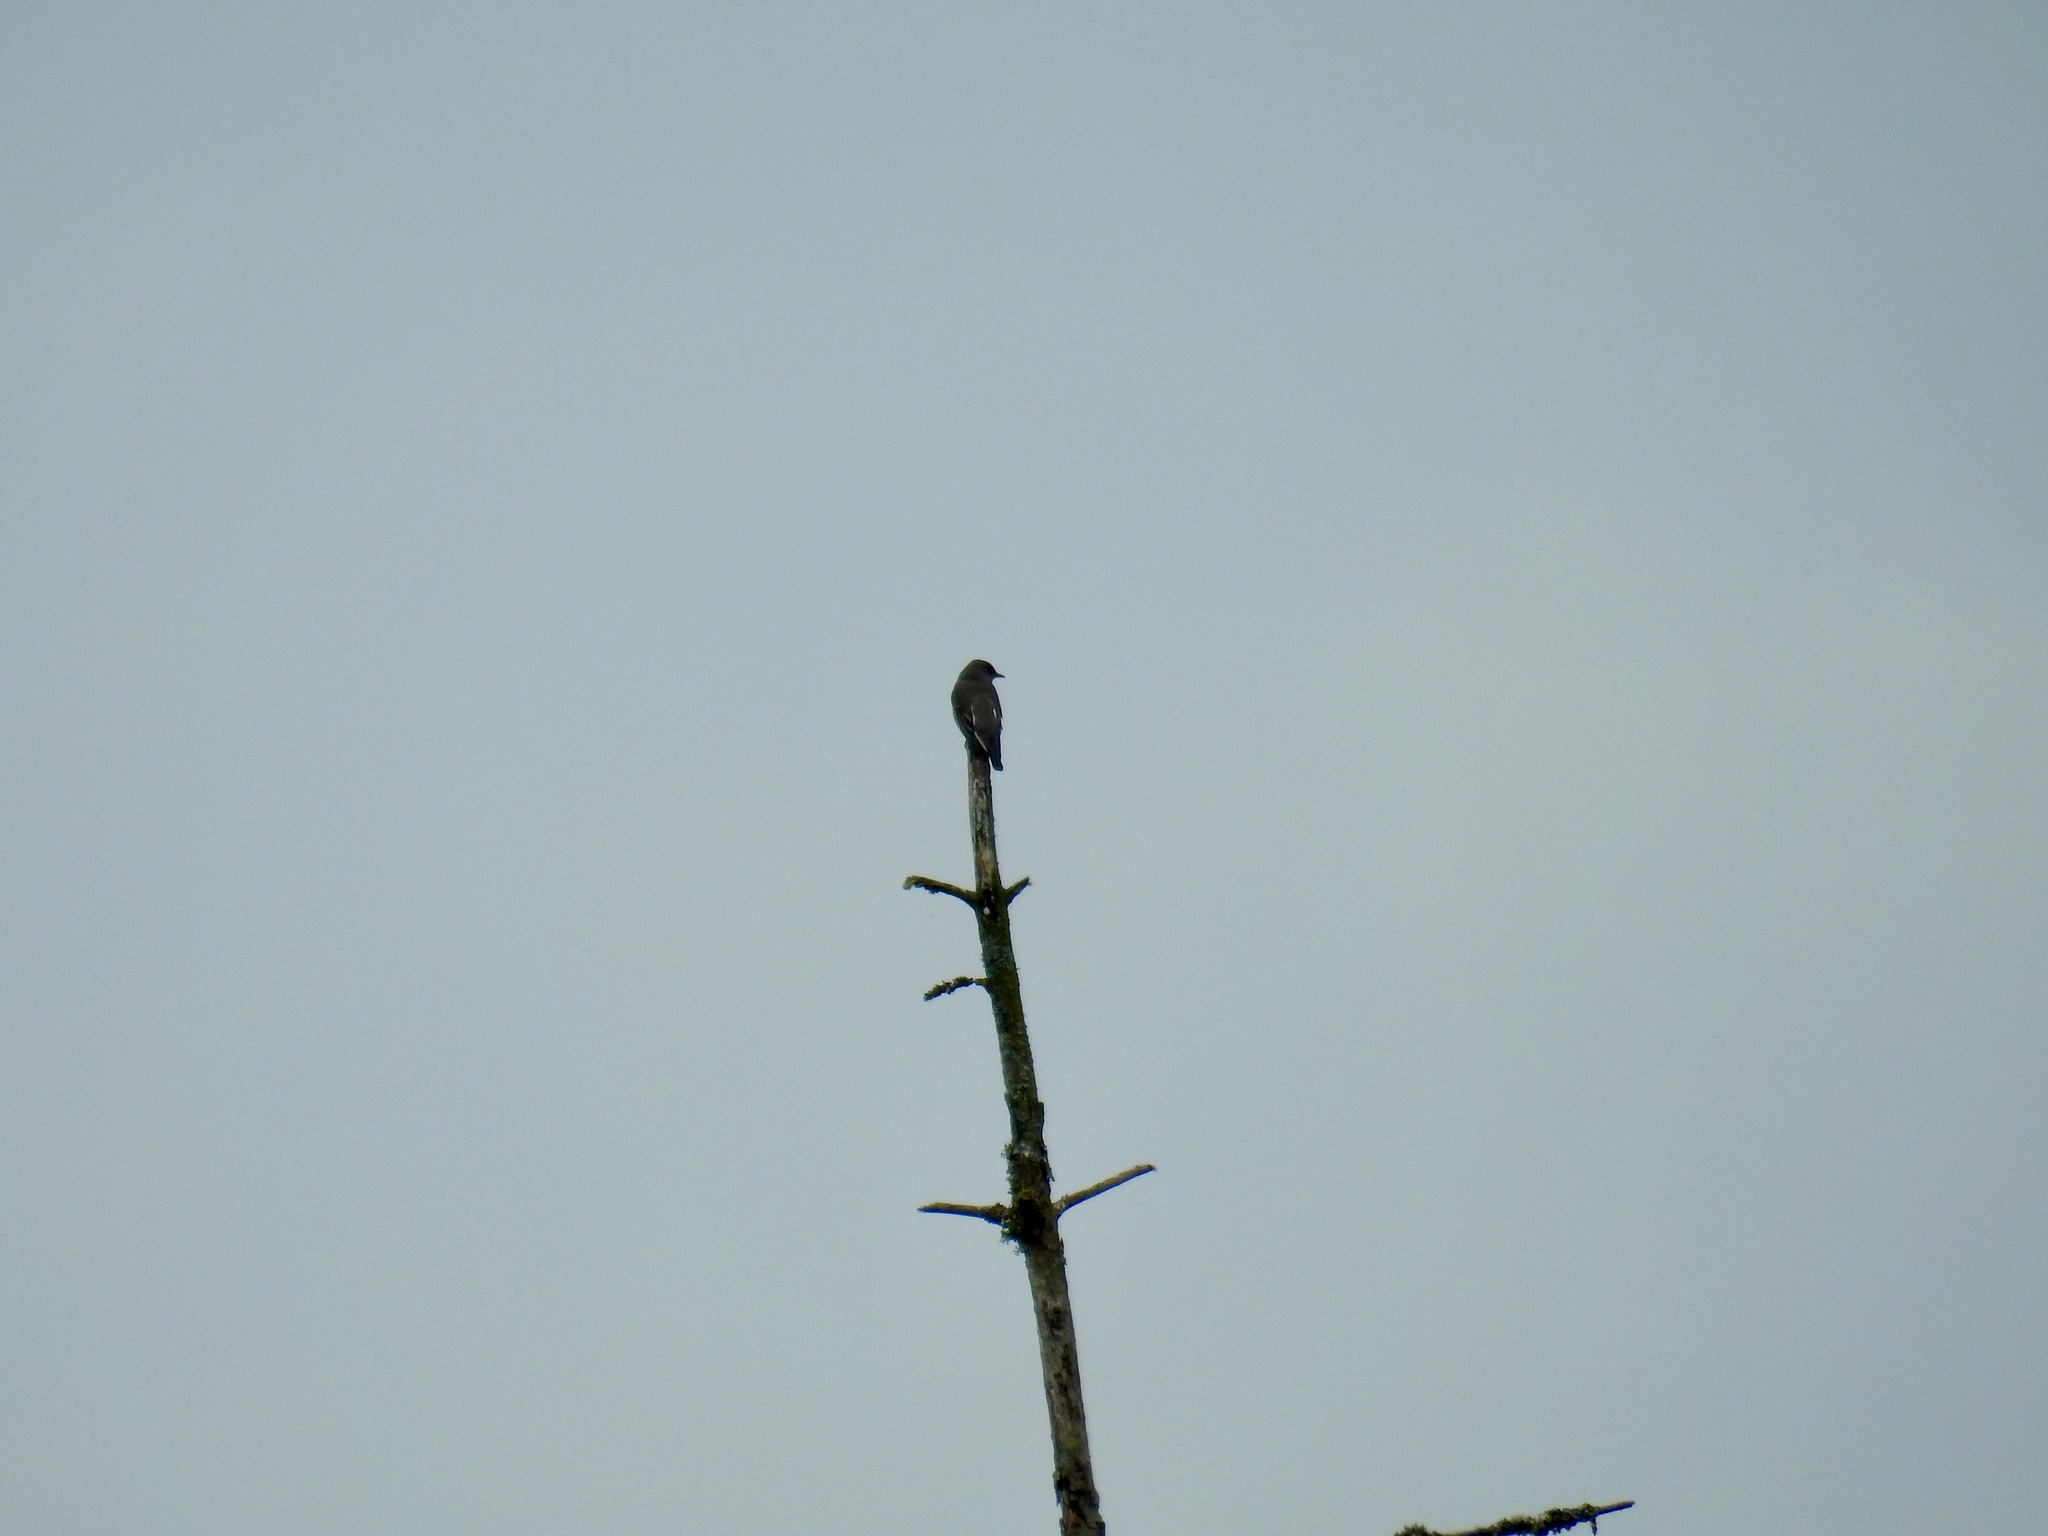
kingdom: Animalia
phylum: Chordata
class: Aves
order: Passeriformes
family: Tyrannidae
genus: Contopus
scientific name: Contopus cooperi
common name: Olive-sided flycatcher
